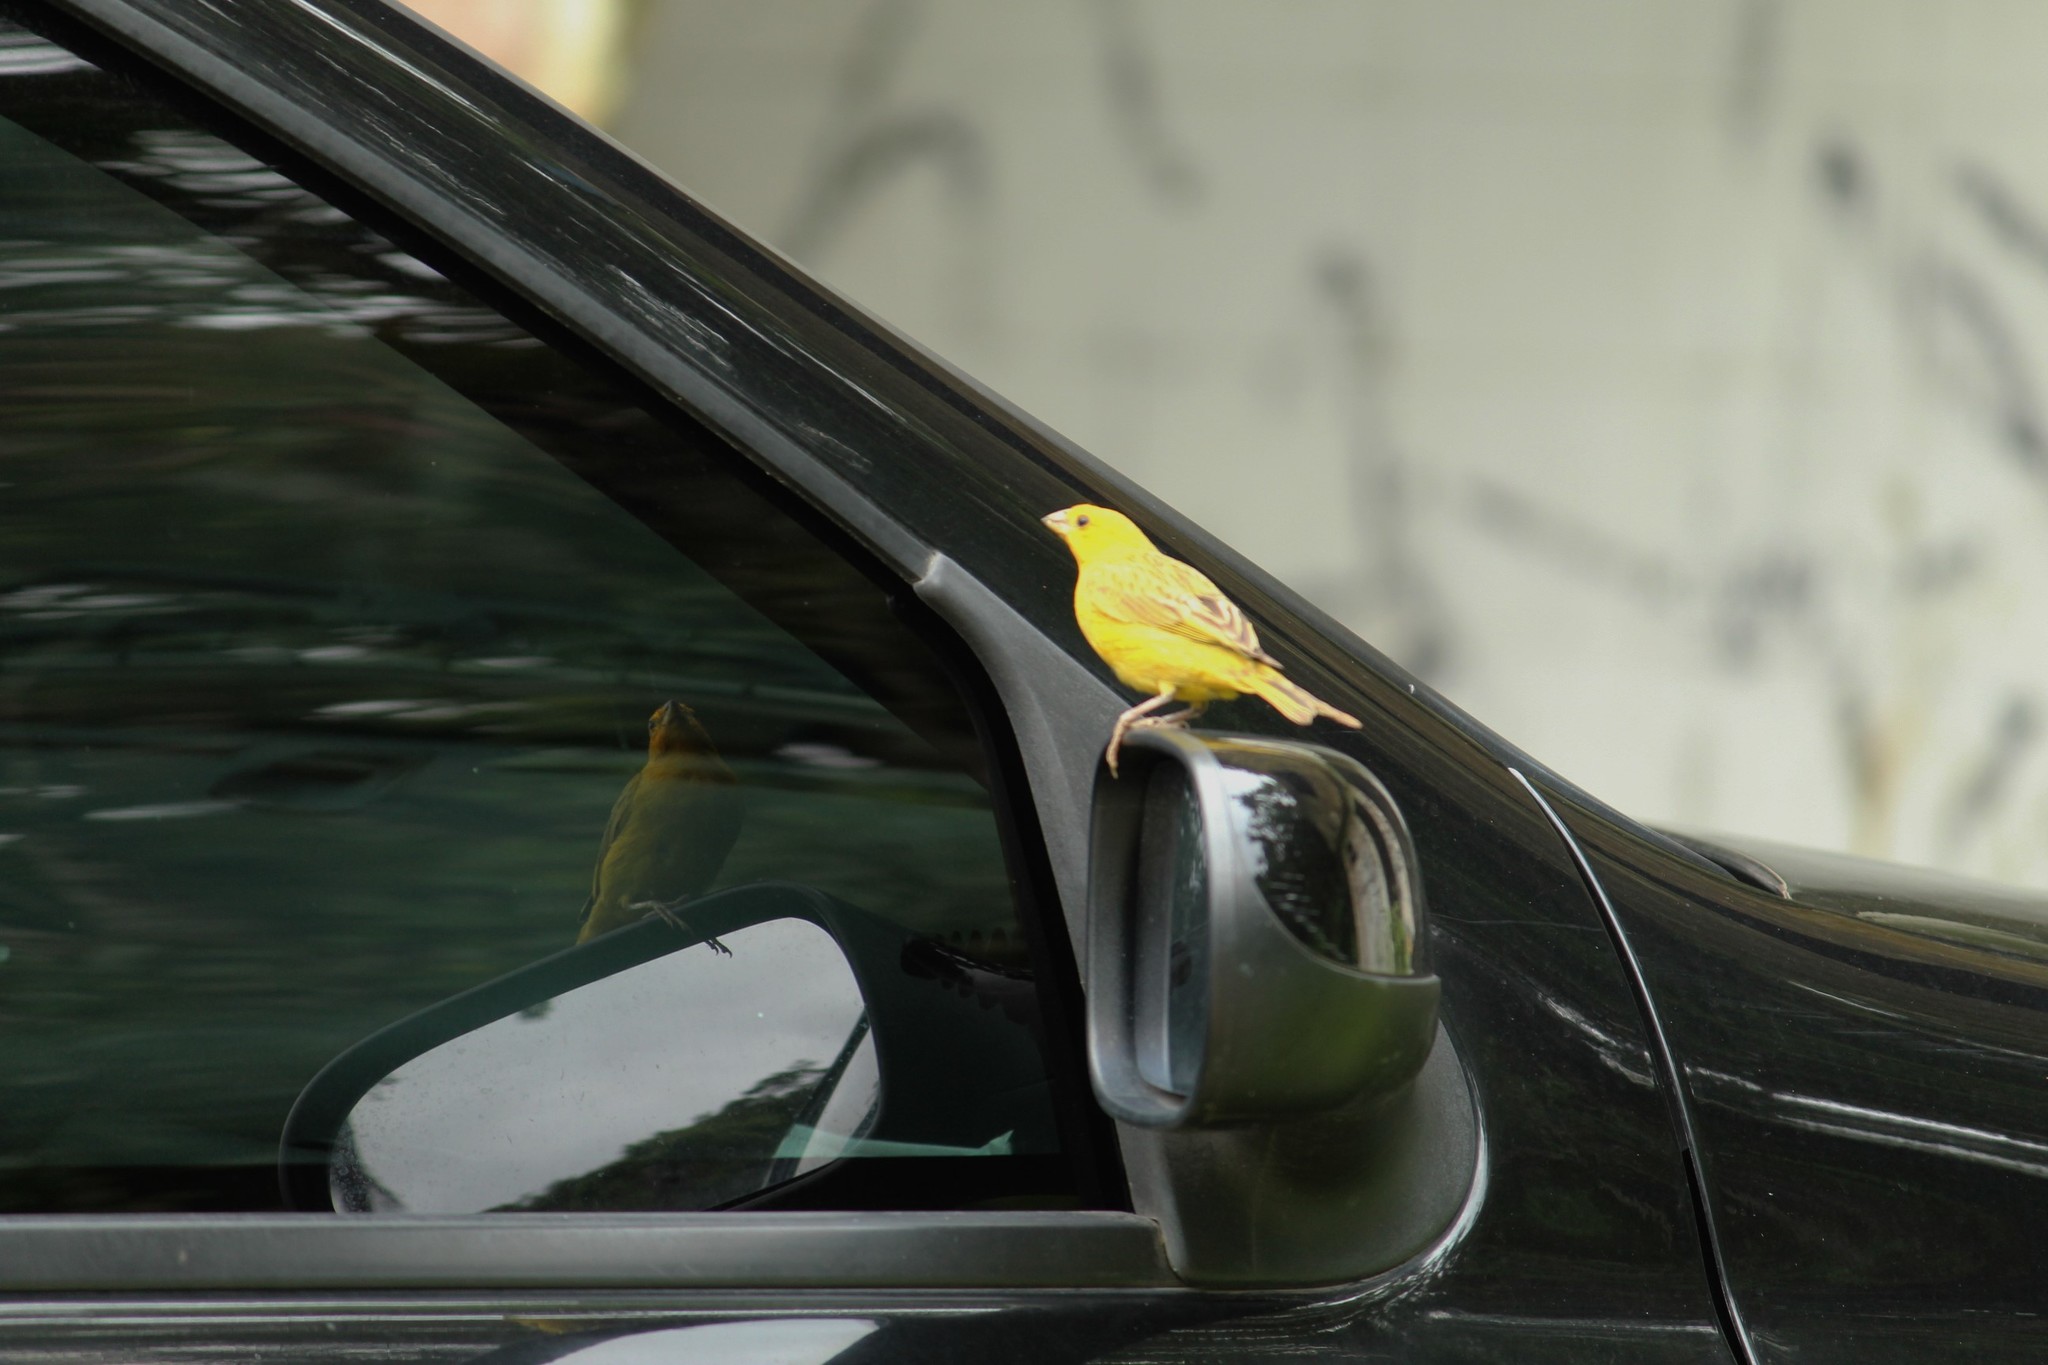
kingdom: Animalia
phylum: Chordata
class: Aves
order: Passeriformes
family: Thraupidae
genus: Sicalis
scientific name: Sicalis flaveola
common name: Saffron finch
